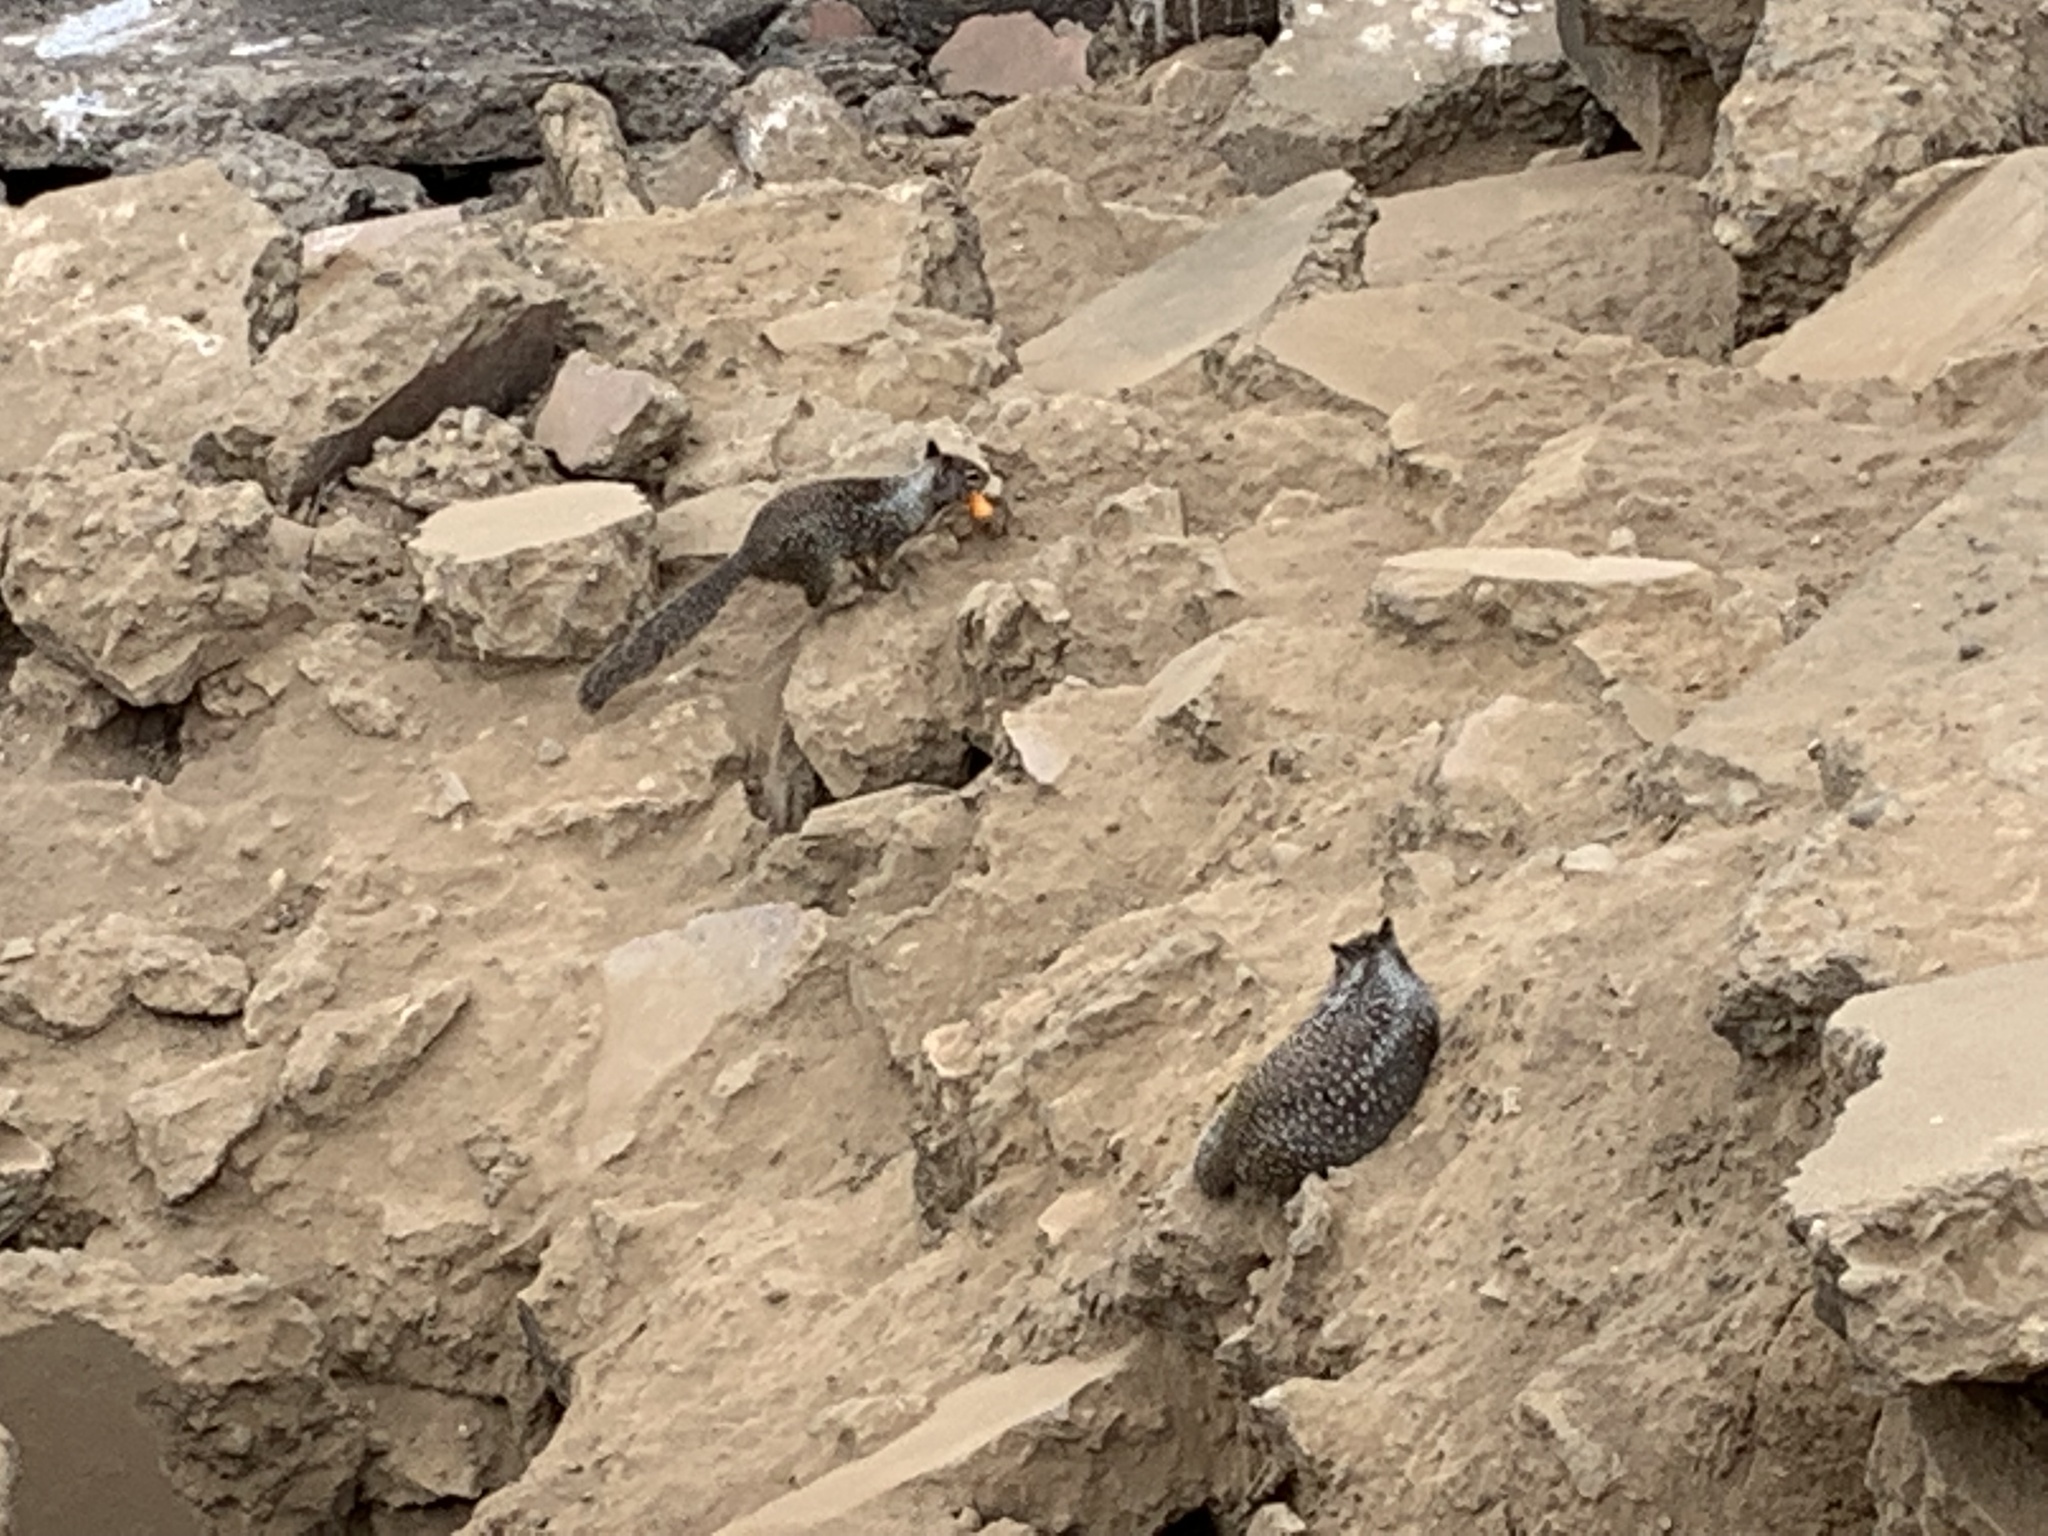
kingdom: Animalia
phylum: Chordata
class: Mammalia
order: Rodentia
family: Sciuridae
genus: Otospermophilus
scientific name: Otospermophilus beecheyi
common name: California ground squirrel
